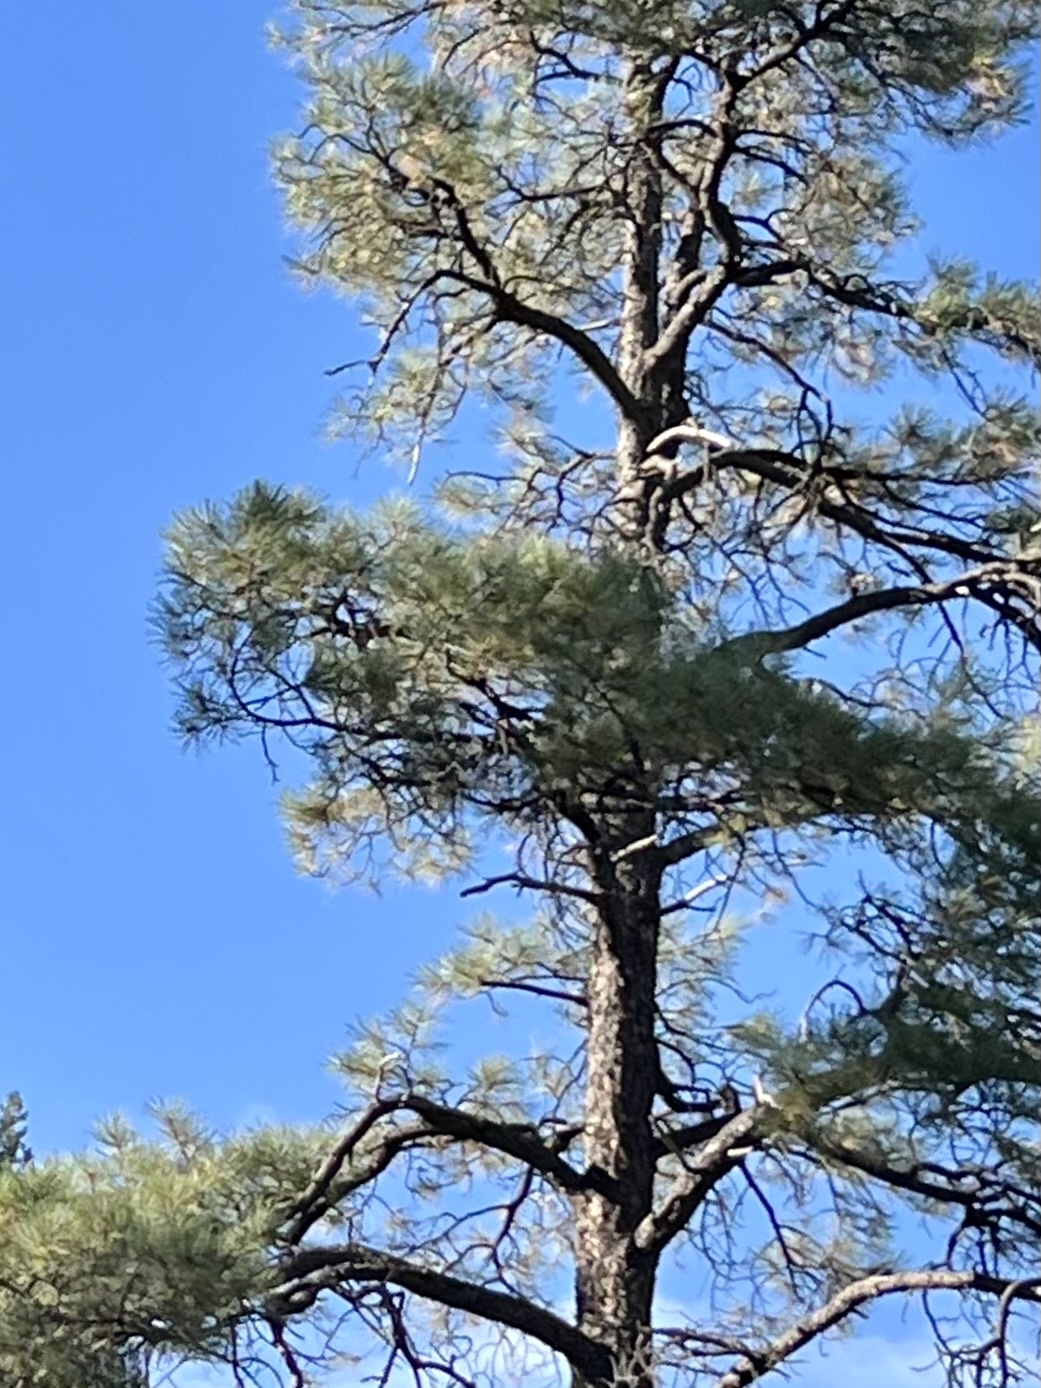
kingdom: Plantae
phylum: Tracheophyta
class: Pinopsida
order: Pinales
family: Pinaceae
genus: Pinus
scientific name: Pinus ponderosa
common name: Western yellow-pine
